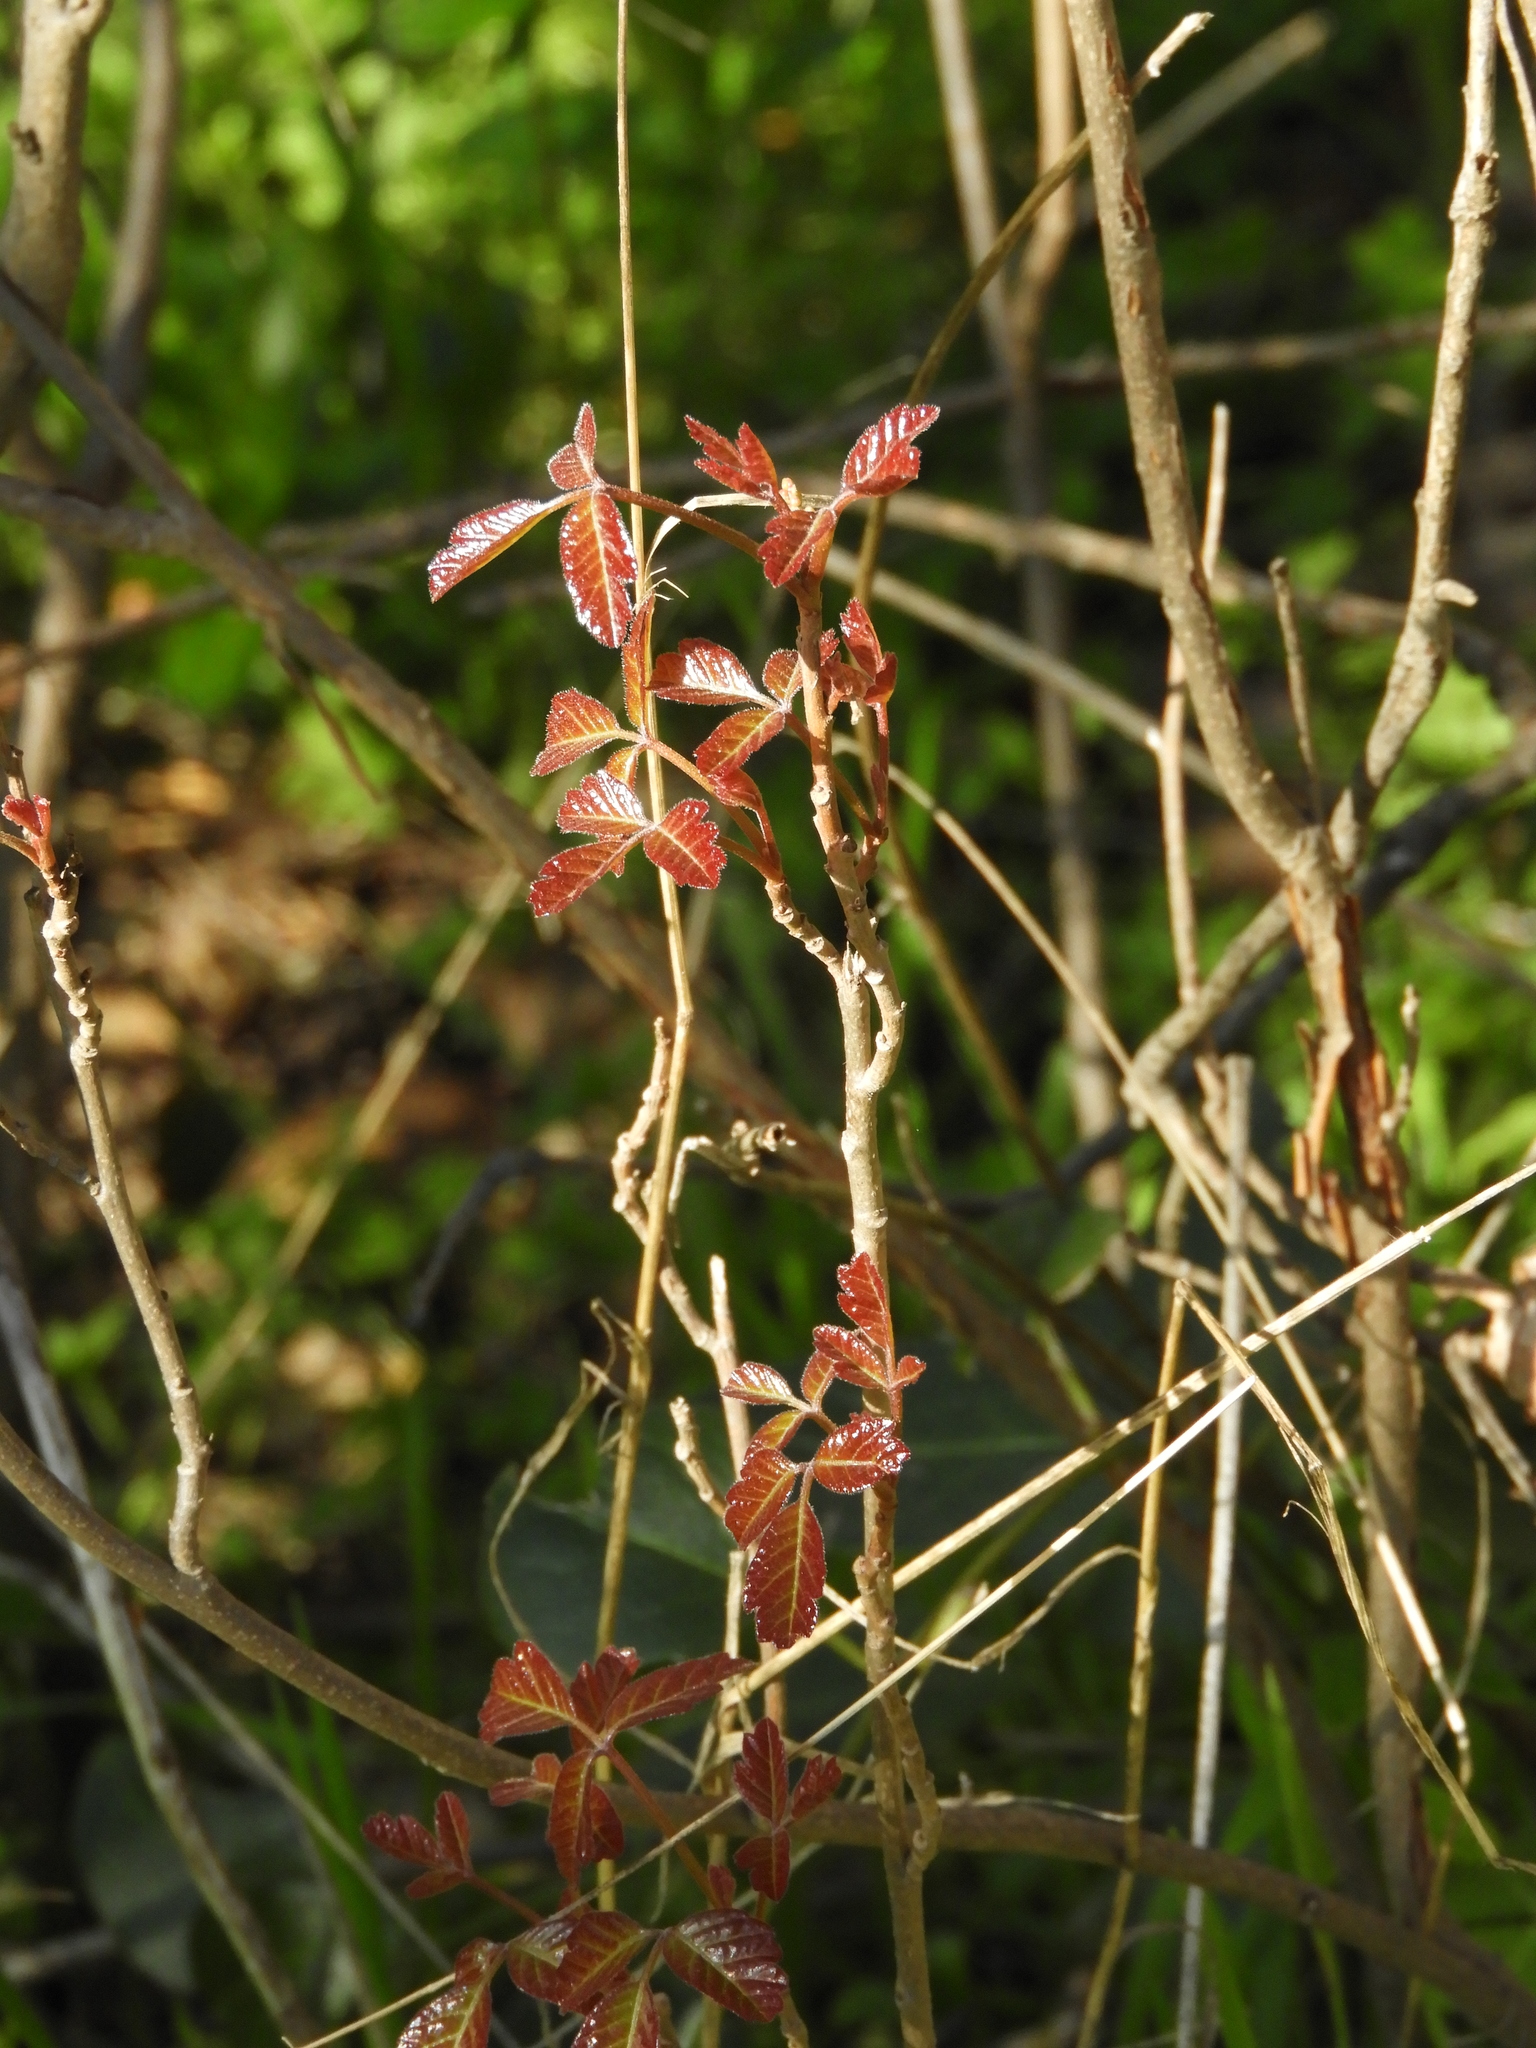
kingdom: Plantae
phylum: Tracheophyta
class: Magnoliopsida
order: Sapindales
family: Anacardiaceae
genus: Toxicodendron
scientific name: Toxicodendron diversilobum
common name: Pacific poison-oak
